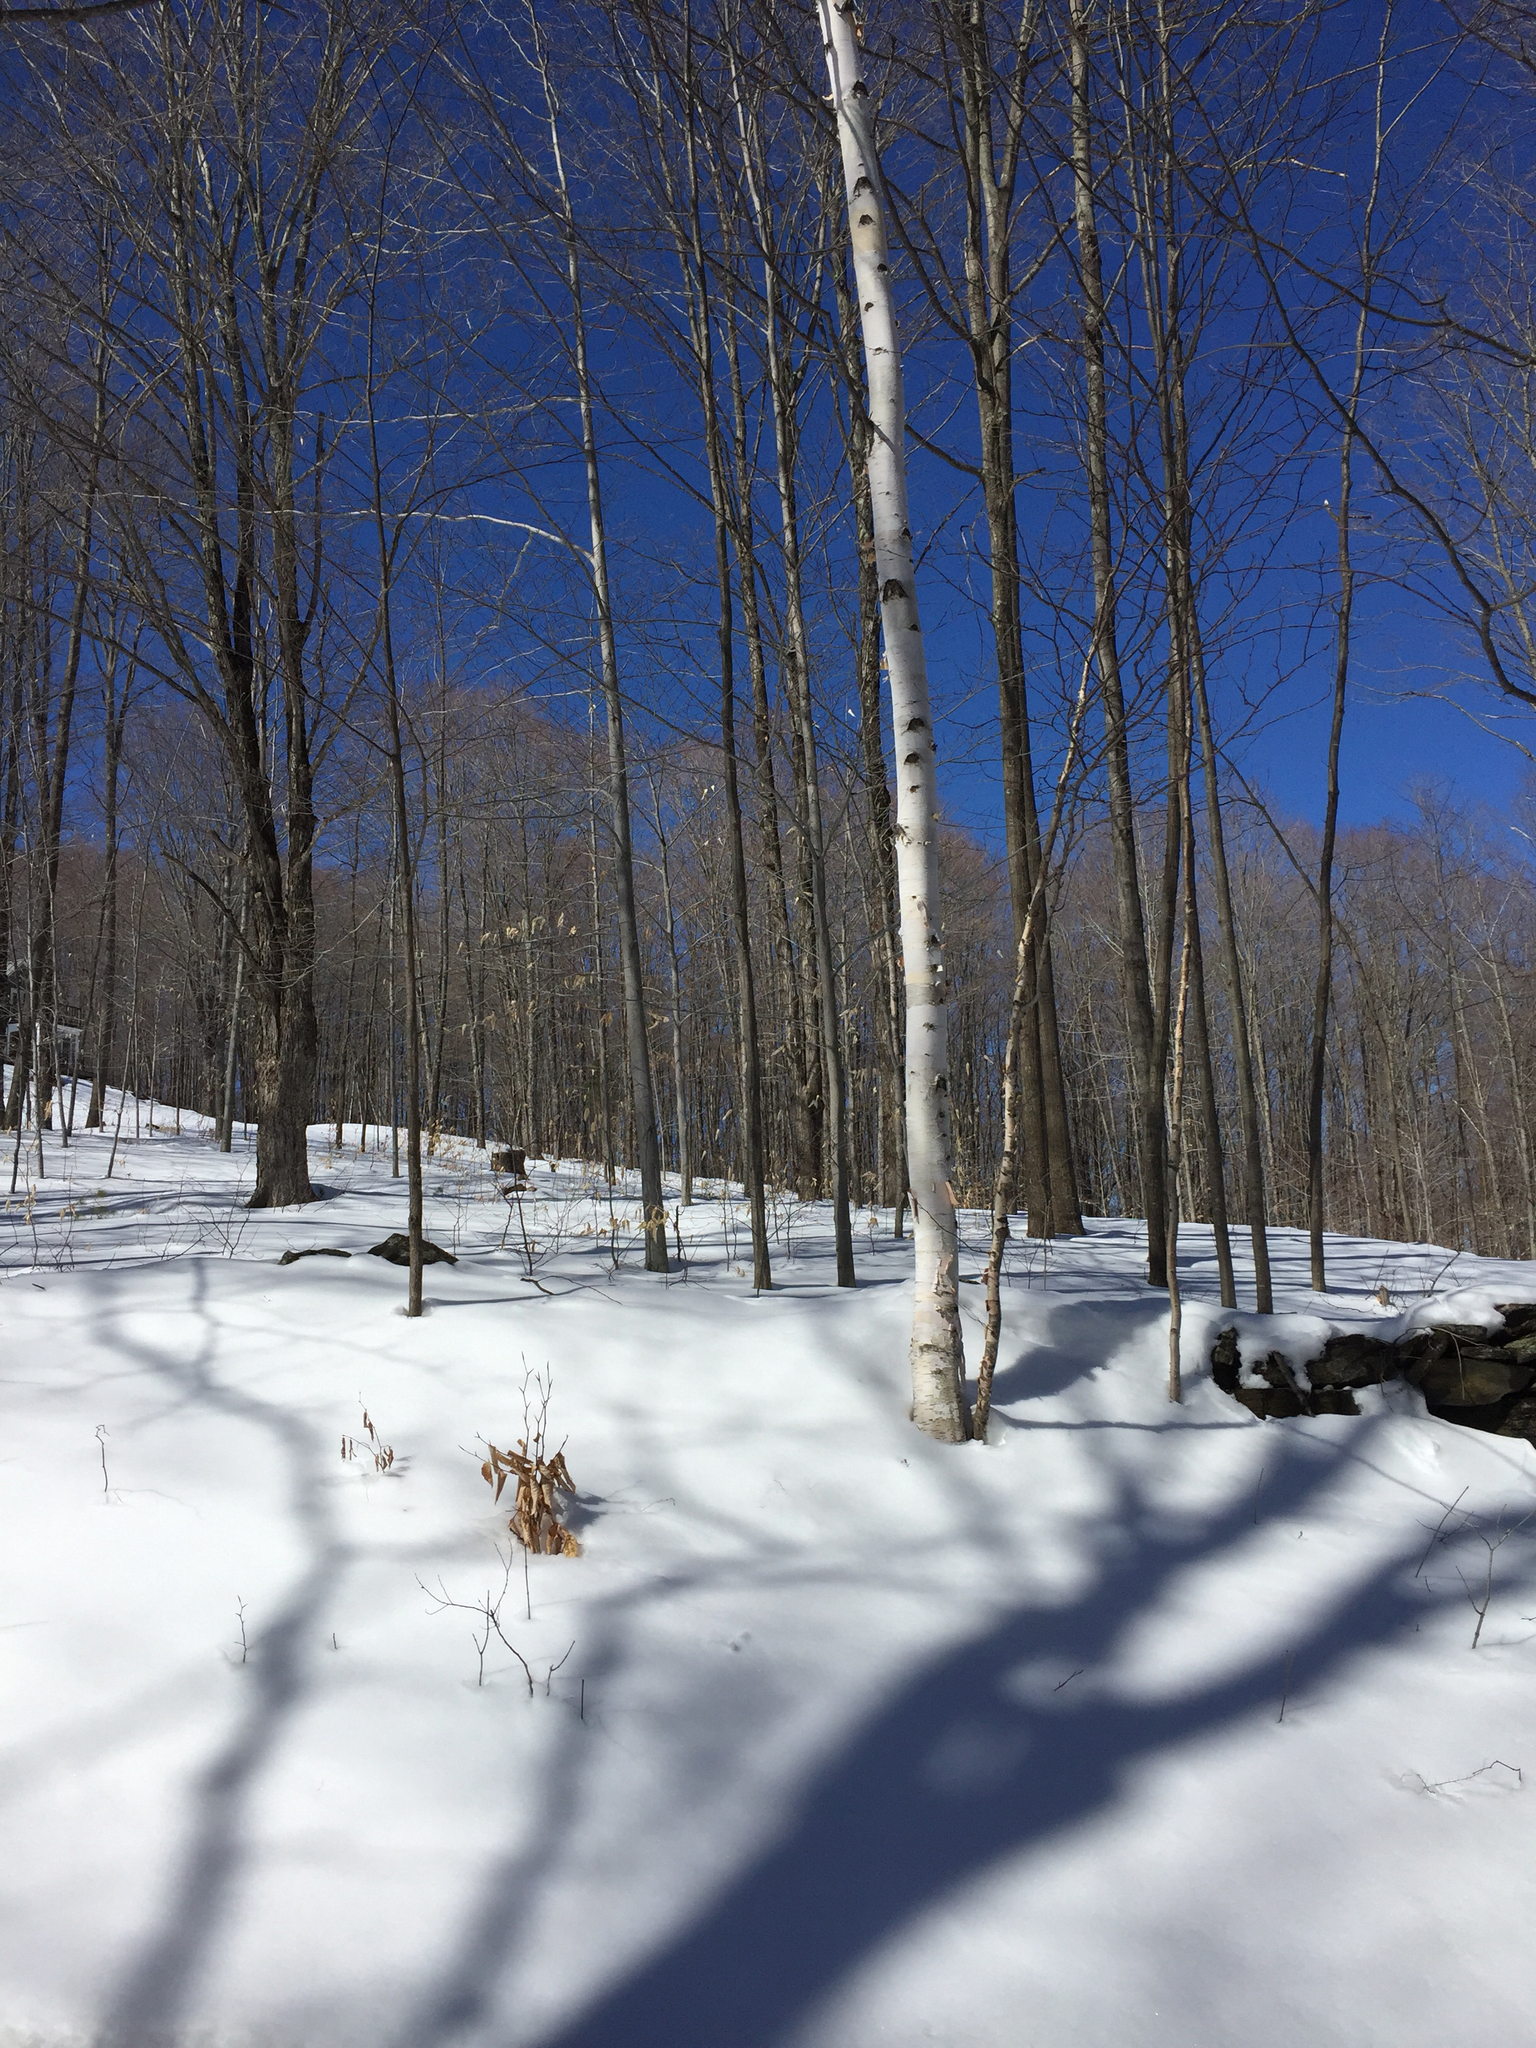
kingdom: Plantae
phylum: Tracheophyta
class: Magnoliopsida
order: Fagales
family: Betulaceae
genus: Betula
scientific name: Betula papyrifera
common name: Paper birch
